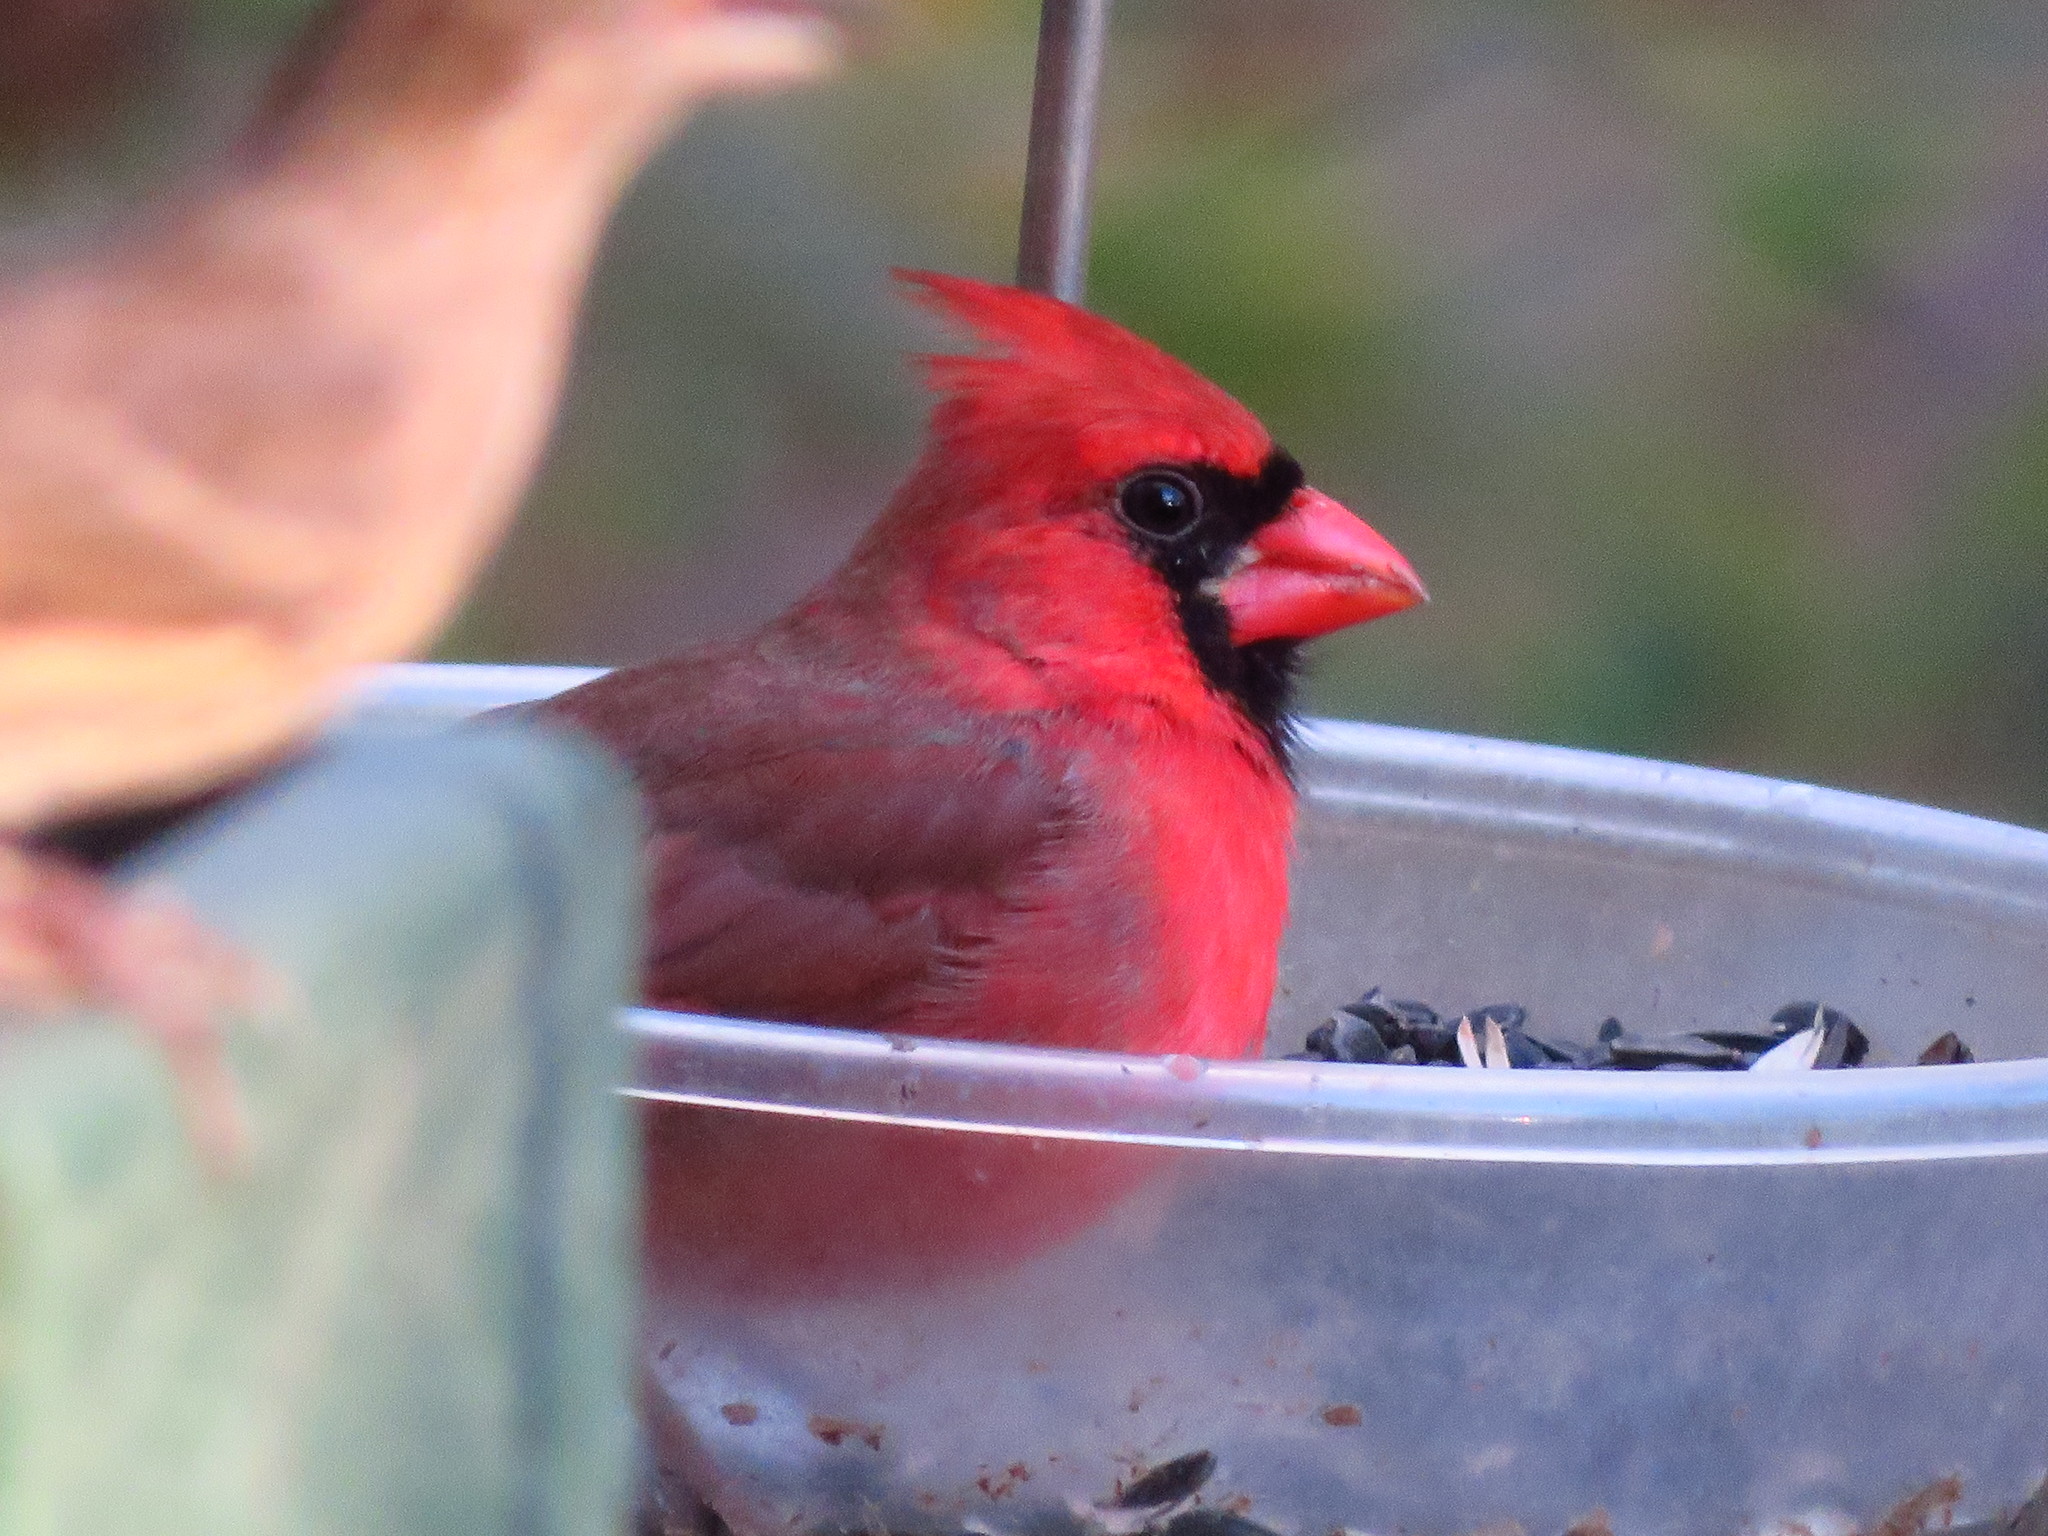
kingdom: Animalia
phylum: Chordata
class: Aves
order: Passeriformes
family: Cardinalidae
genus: Cardinalis
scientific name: Cardinalis cardinalis
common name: Northern cardinal
